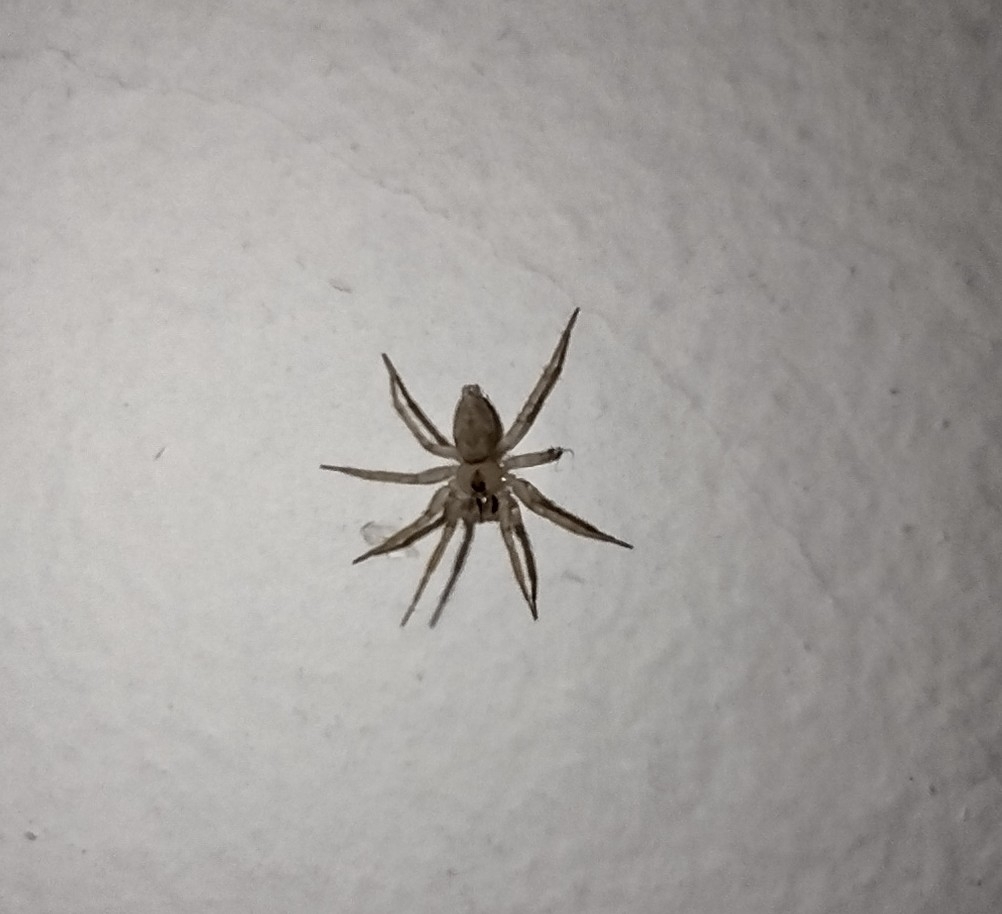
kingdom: Animalia
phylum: Arthropoda
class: Arachnida
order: Araneae
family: Oecobiidae
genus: Oecobius
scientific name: Oecobius navus
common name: Flatmesh weaver
